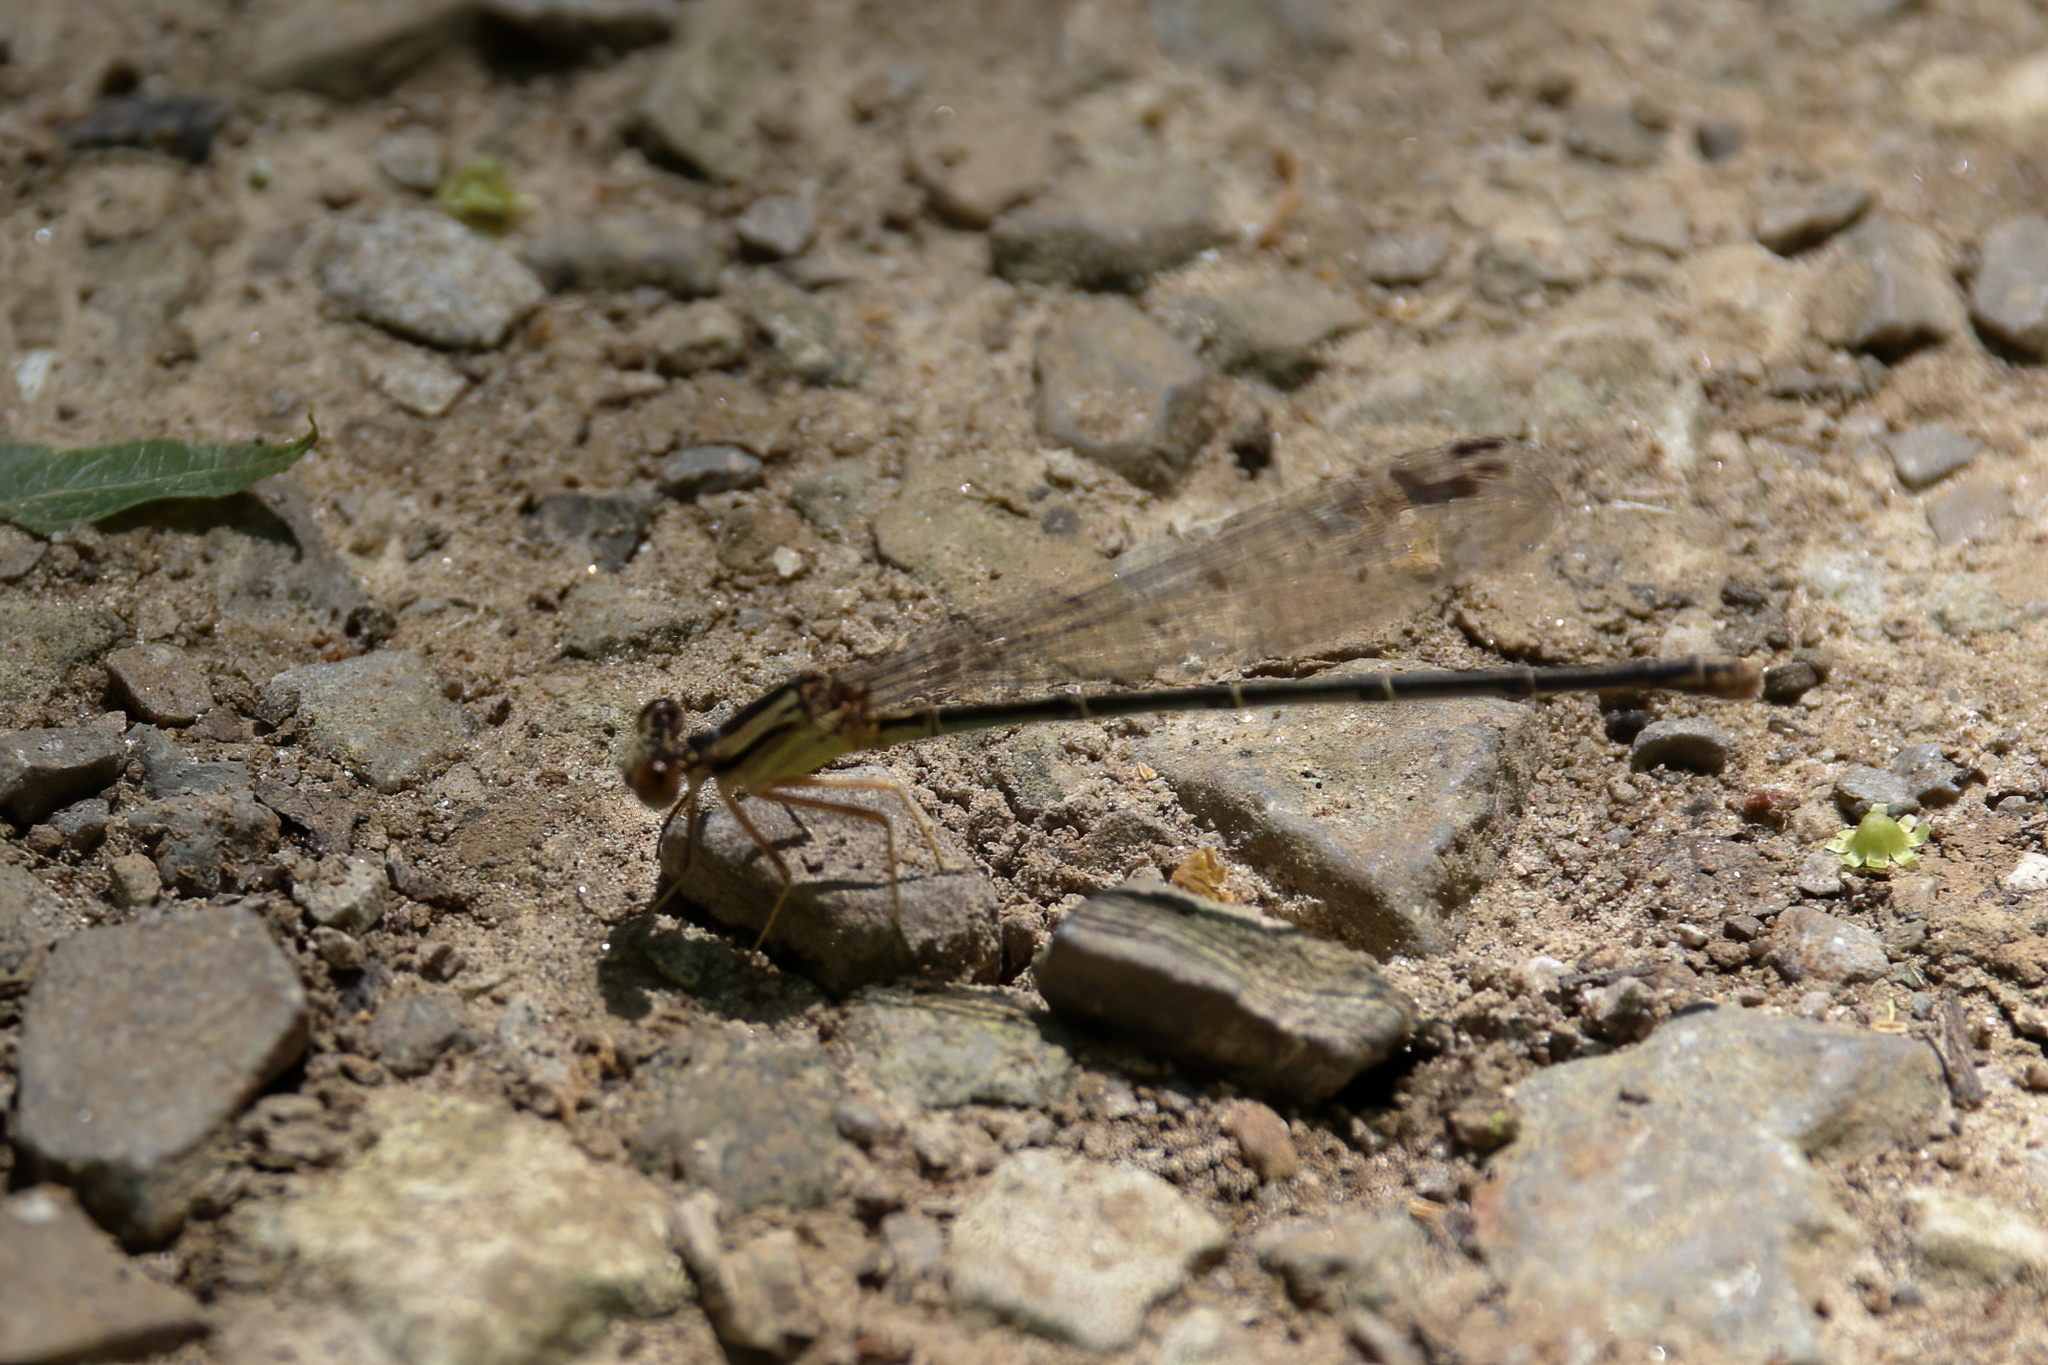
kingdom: Animalia
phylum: Arthropoda
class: Insecta
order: Odonata
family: Coenagrionidae
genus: Argia
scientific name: Argia tibialis
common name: Blue-tipped dancer
